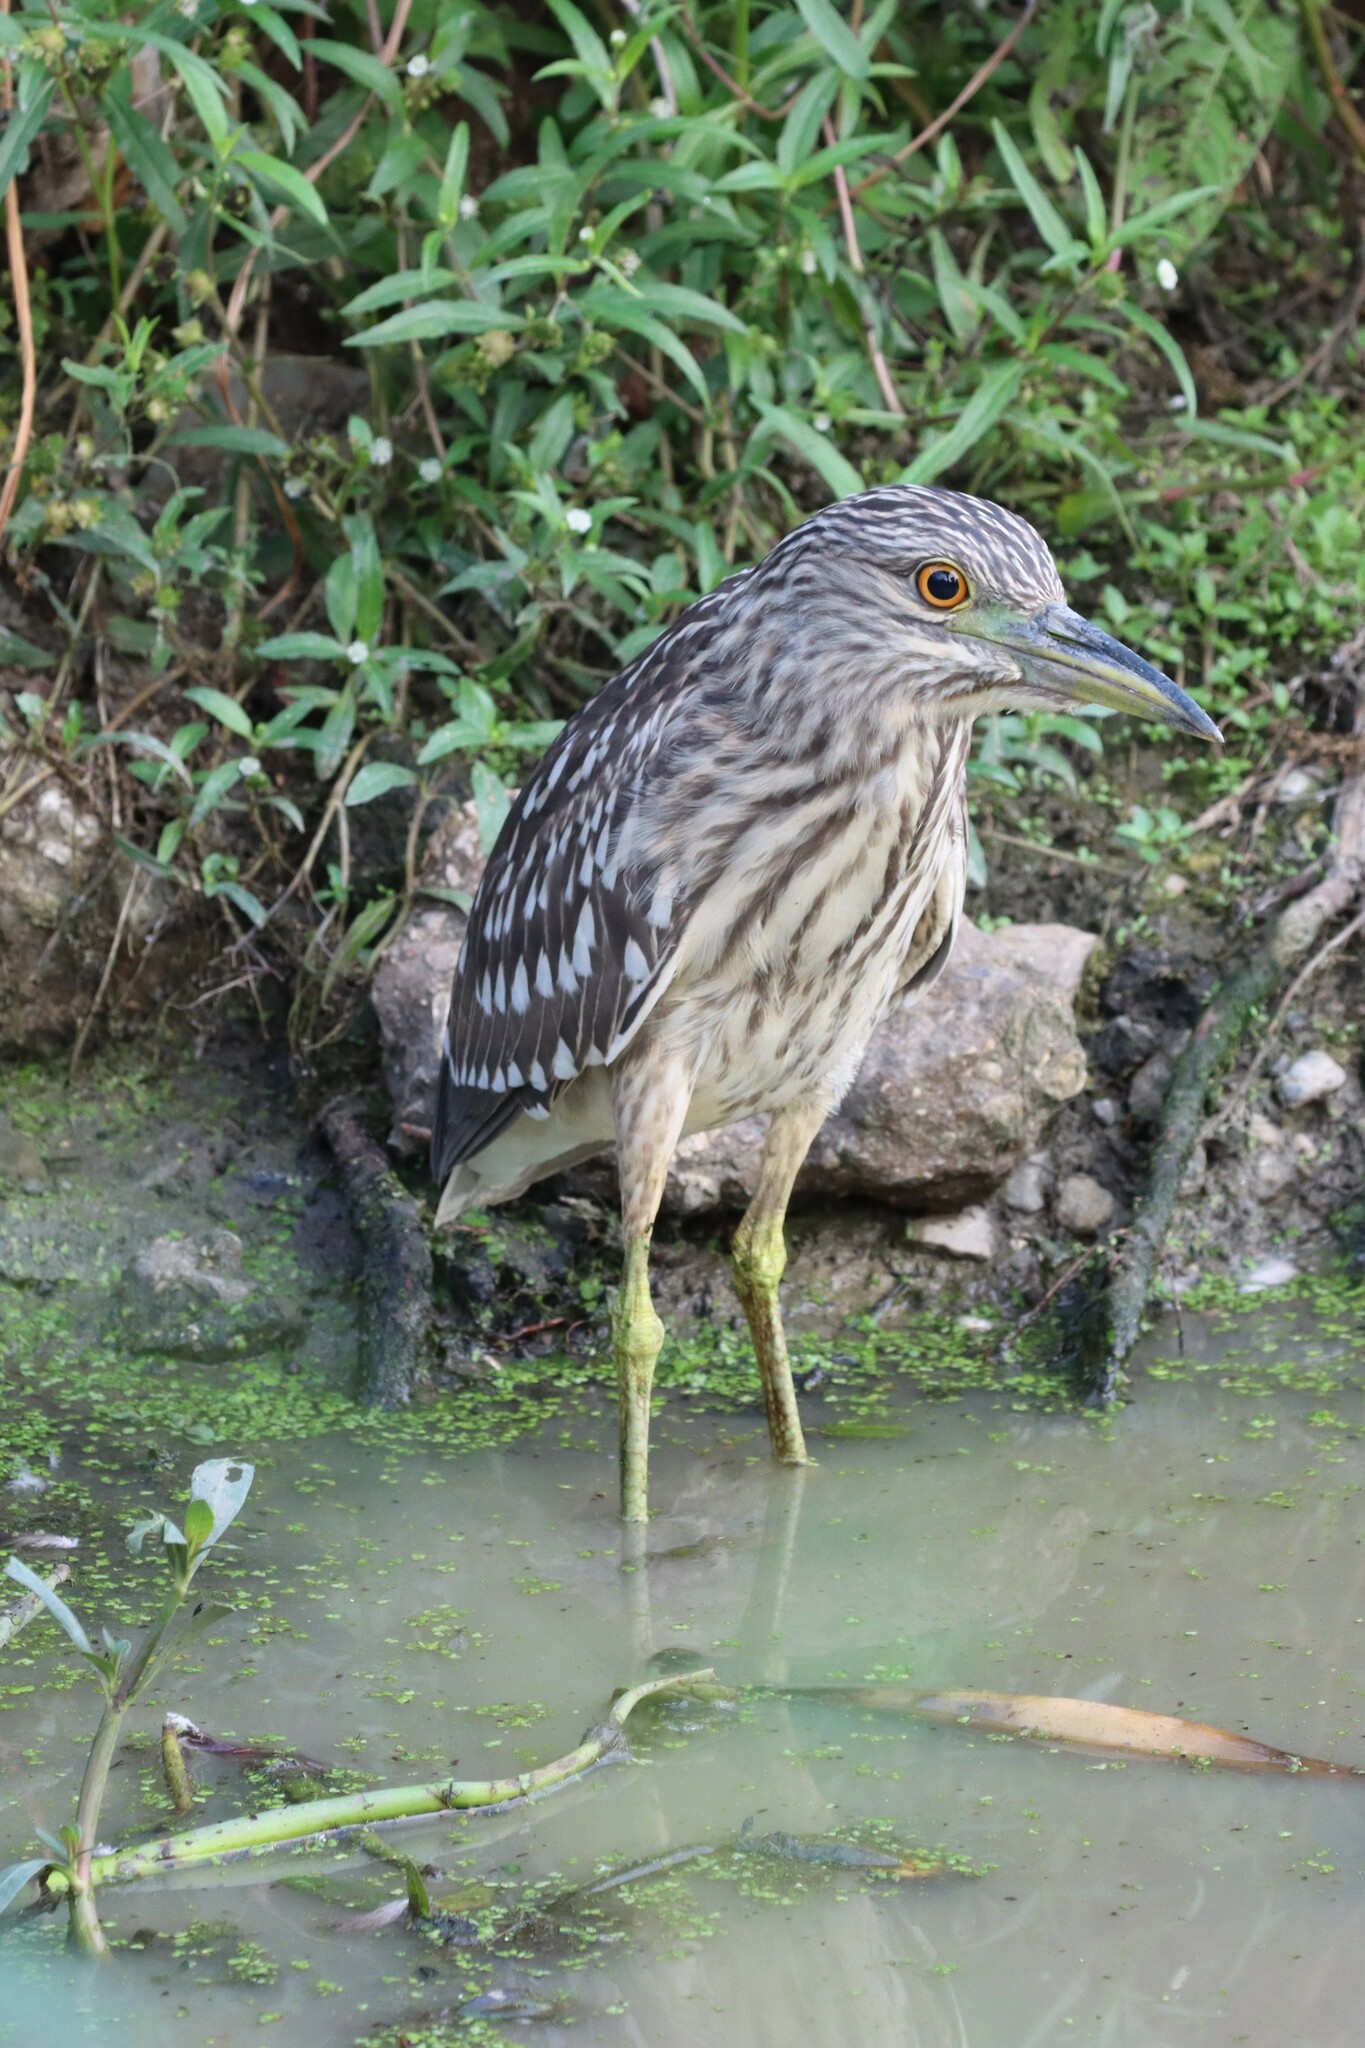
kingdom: Animalia
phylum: Chordata
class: Aves
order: Pelecaniformes
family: Ardeidae
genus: Nycticorax
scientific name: Nycticorax nycticorax
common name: Black-crowned night heron
